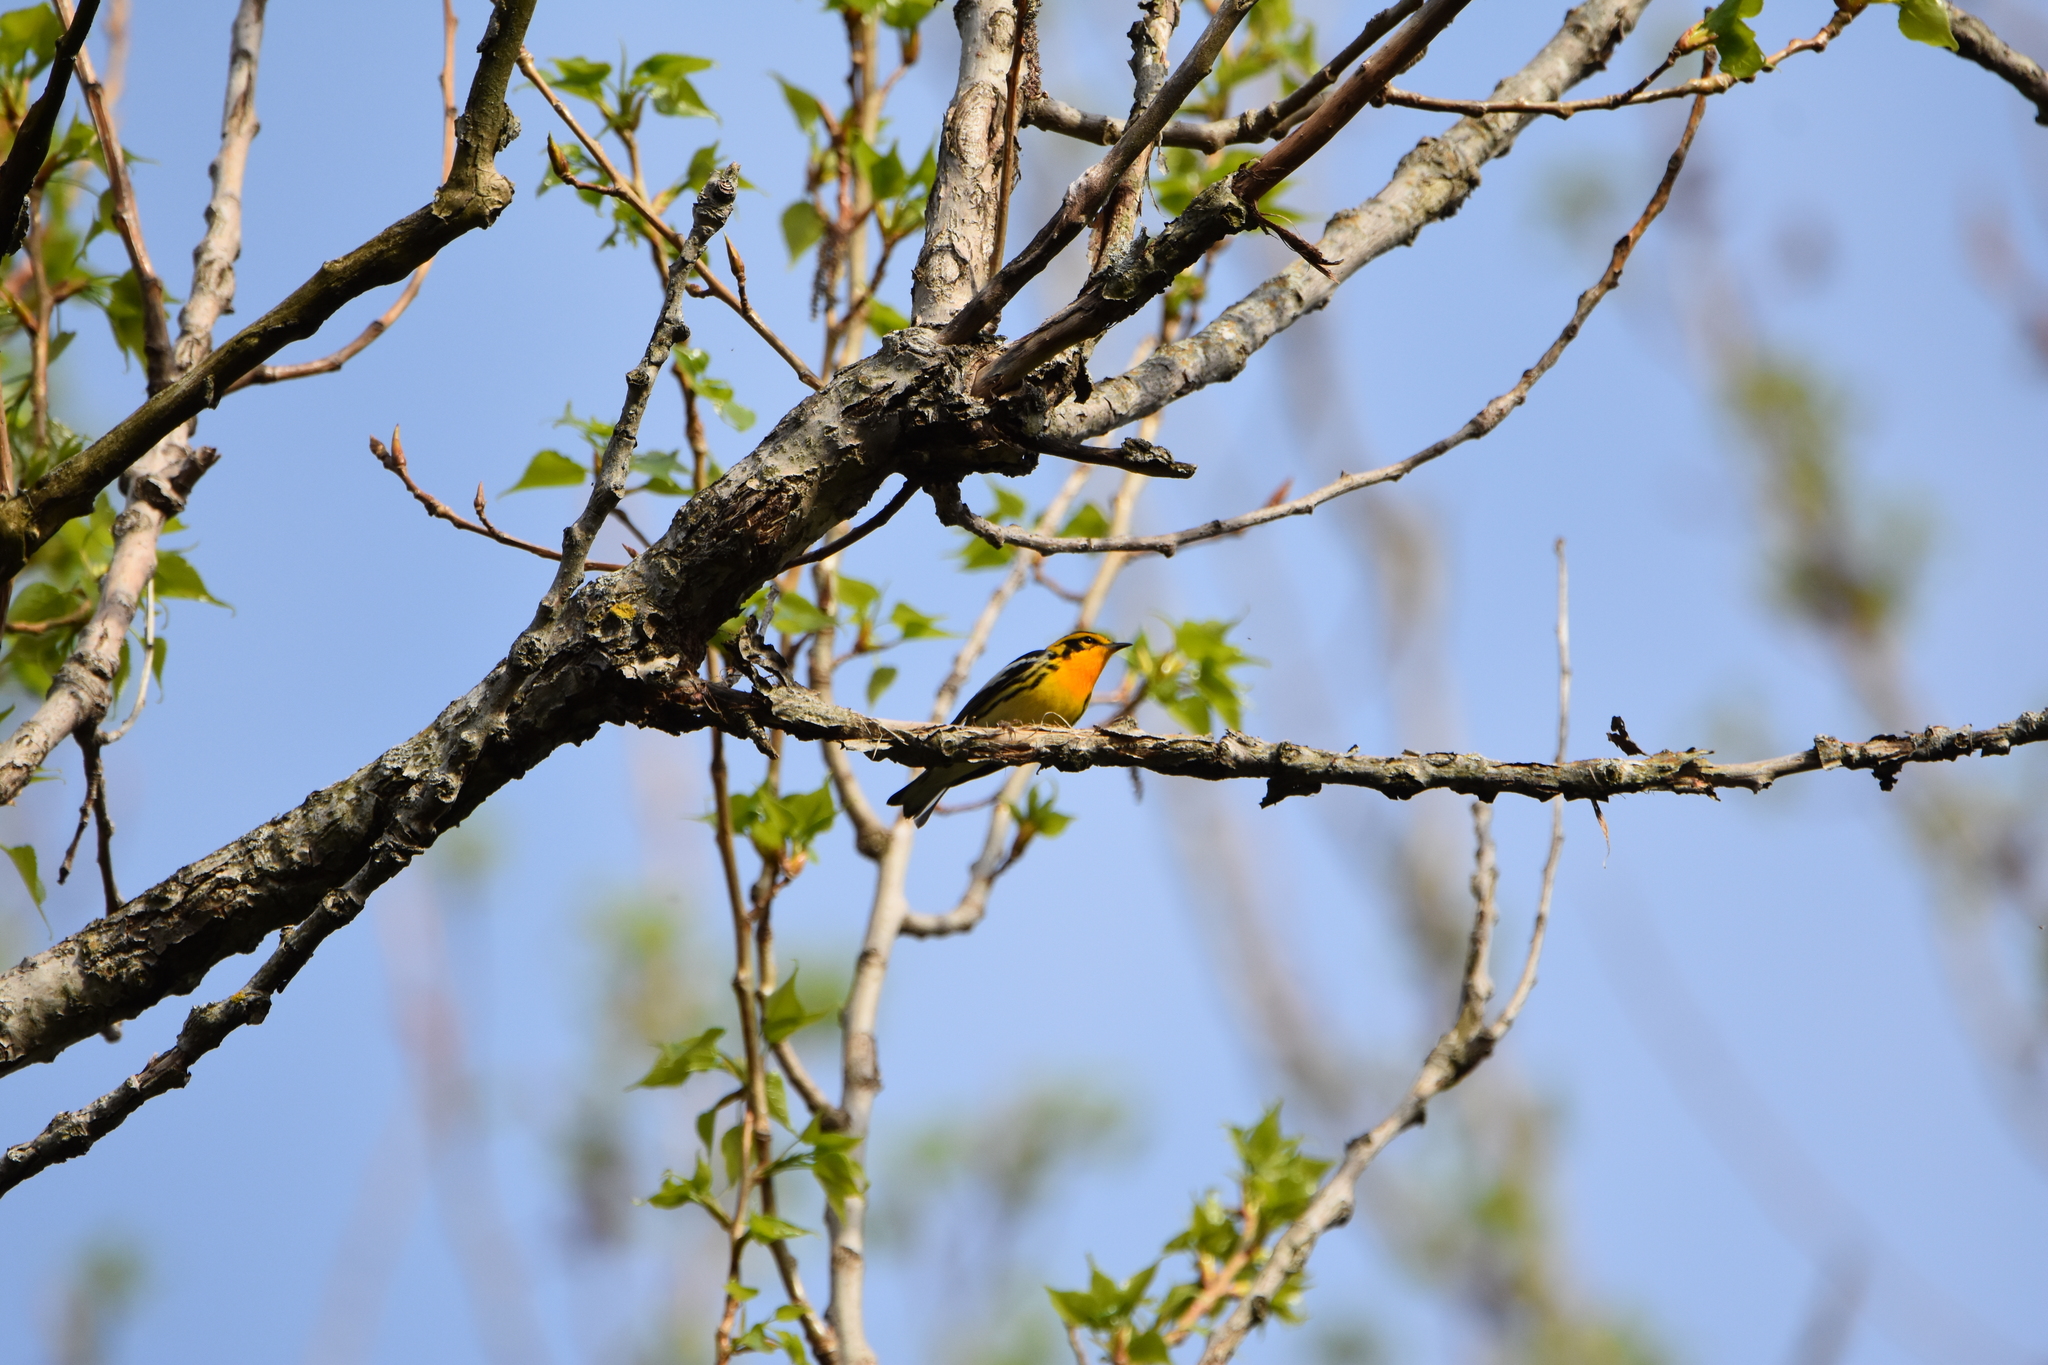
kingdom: Animalia
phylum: Chordata
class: Aves
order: Passeriformes
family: Parulidae
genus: Setophaga
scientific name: Setophaga fusca
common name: Blackburnian warbler
